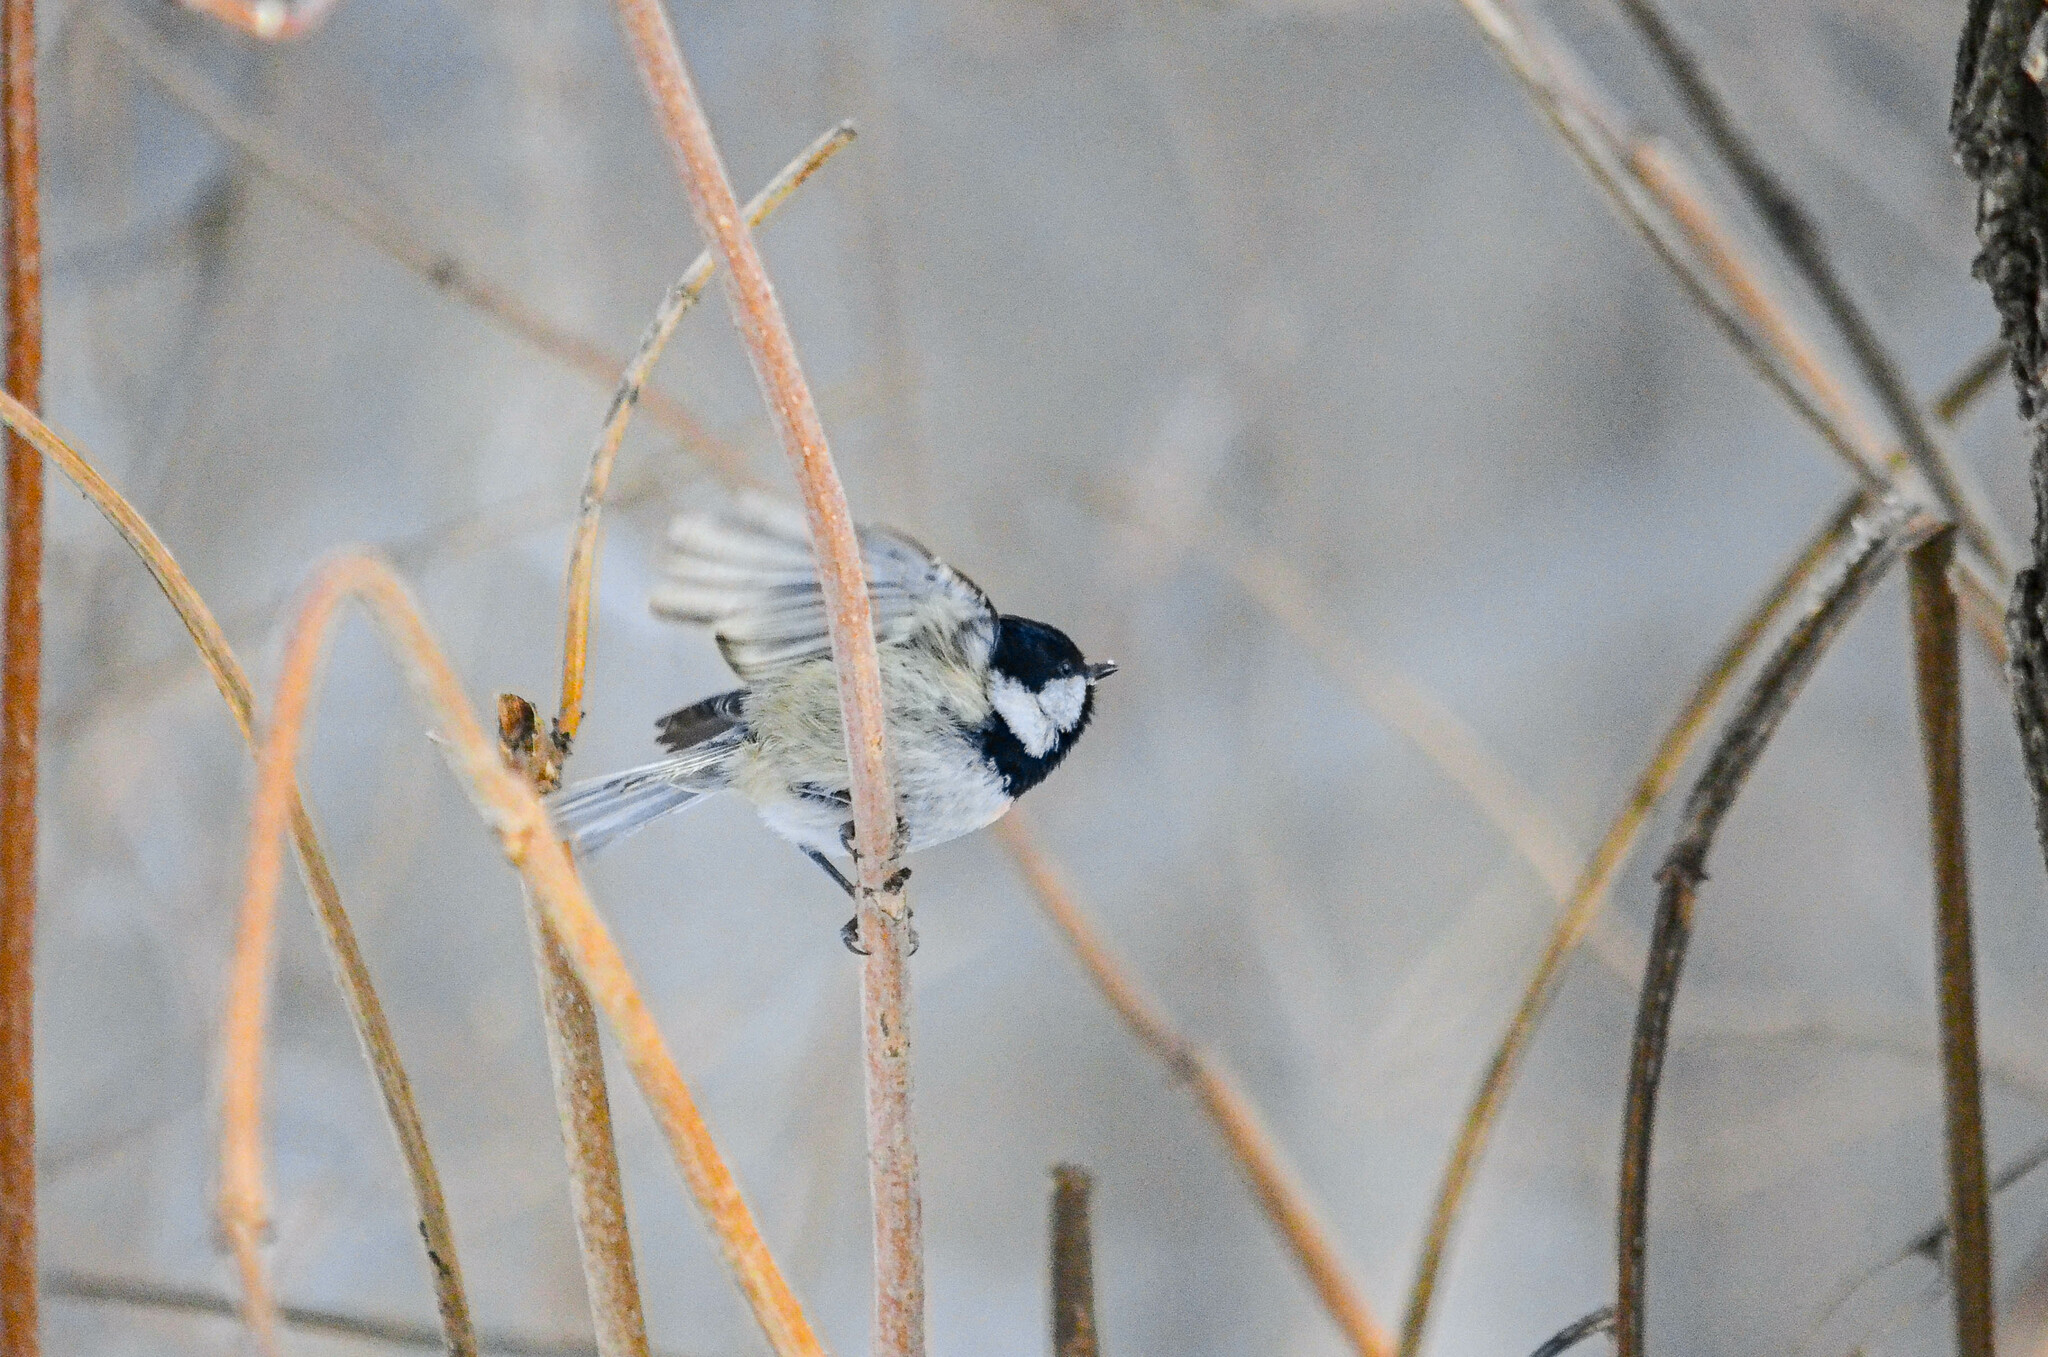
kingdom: Animalia
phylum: Chordata
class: Aves
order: Passeriformes
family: Paridae
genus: Periparus
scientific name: Periparus ater
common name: Coal tit
